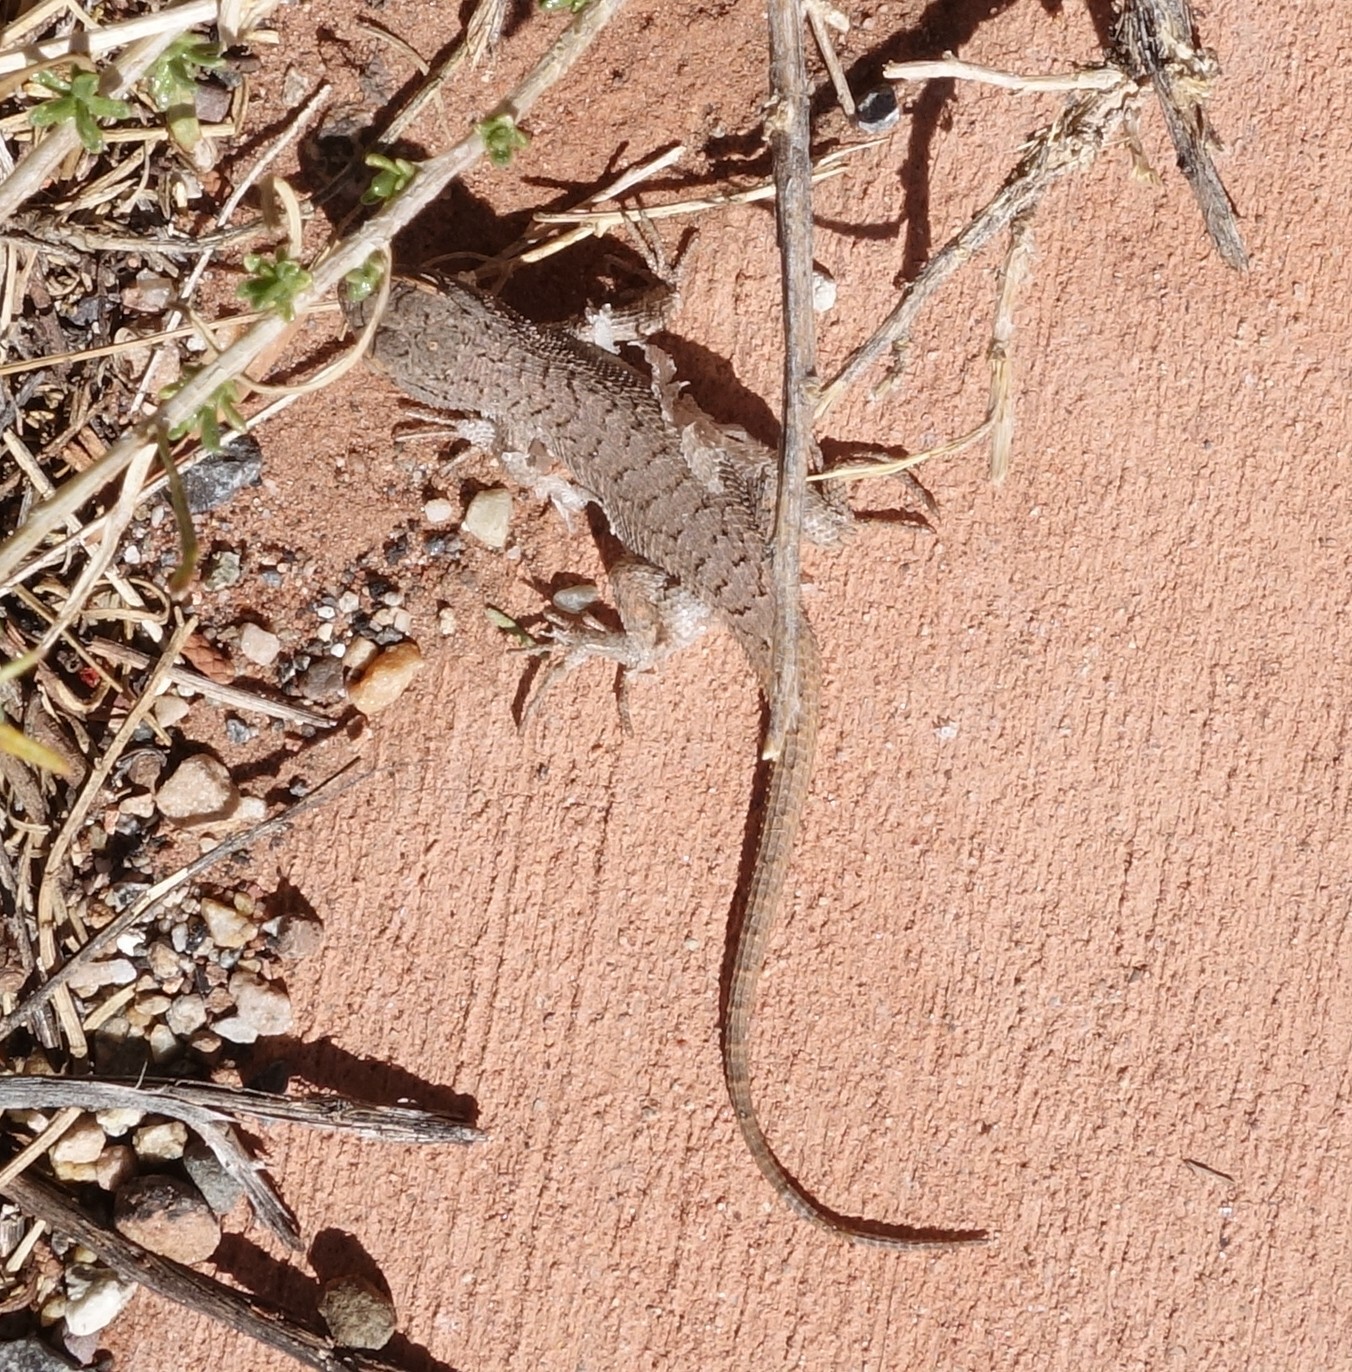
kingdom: Animalia
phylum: Chordata
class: Squamata
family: Phrynosomatidae
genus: Sceloporus
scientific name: Sceloporus tristichus
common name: Plateau fence lizard
